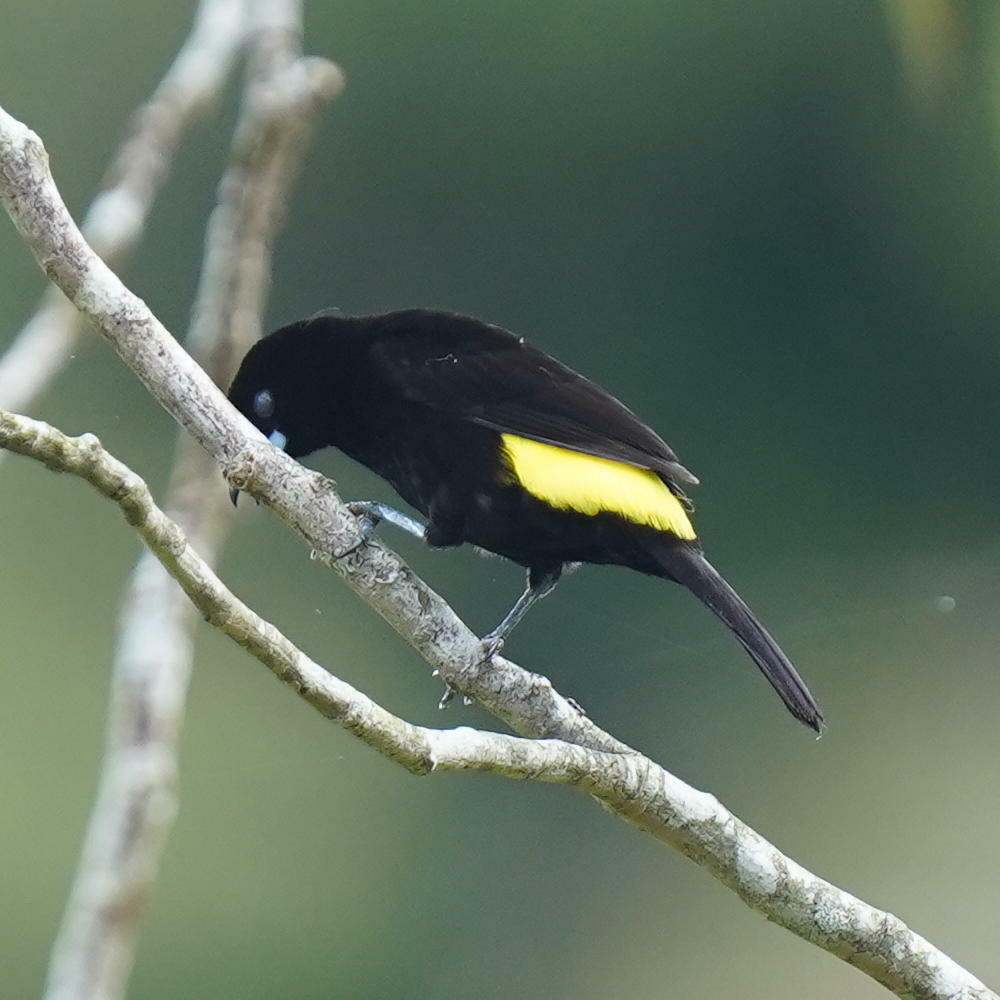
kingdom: Animalia
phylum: Chordata
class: Aves
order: Passeriformes
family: Thraupidae
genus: Ramphocelus
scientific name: Ramphocelus flammigerus
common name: Flame-rumped tanager
